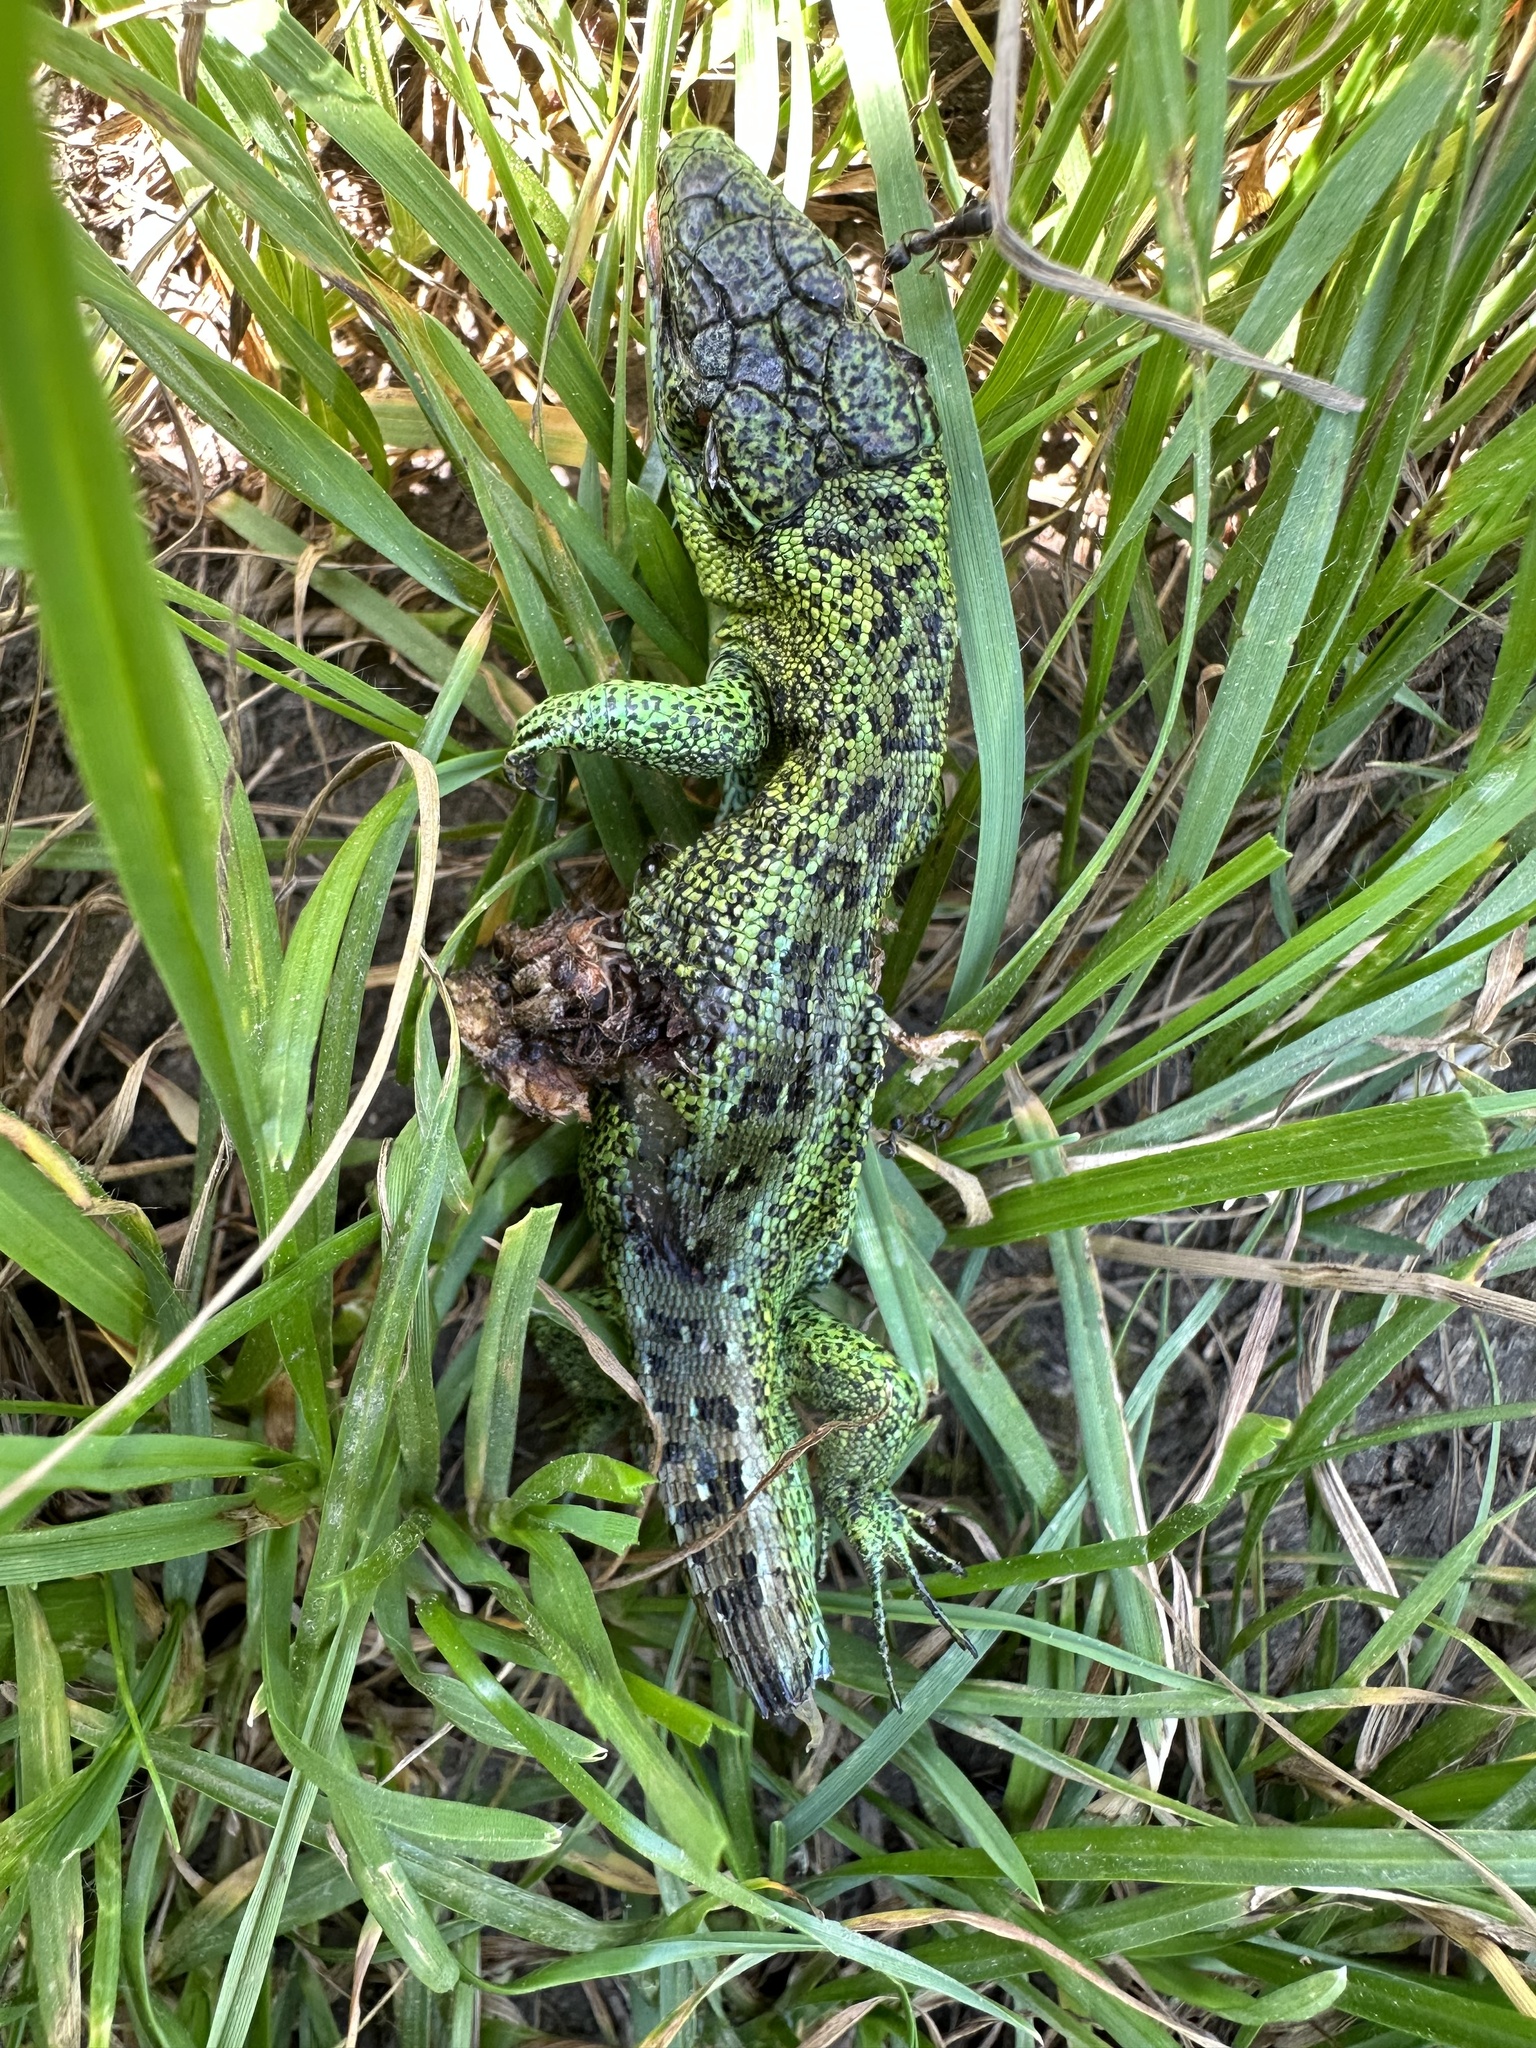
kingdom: Animalia
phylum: Chordata
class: Squamata
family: Lacertidae
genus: Lacerta
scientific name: Lacerta agilis
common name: Sand lizard
